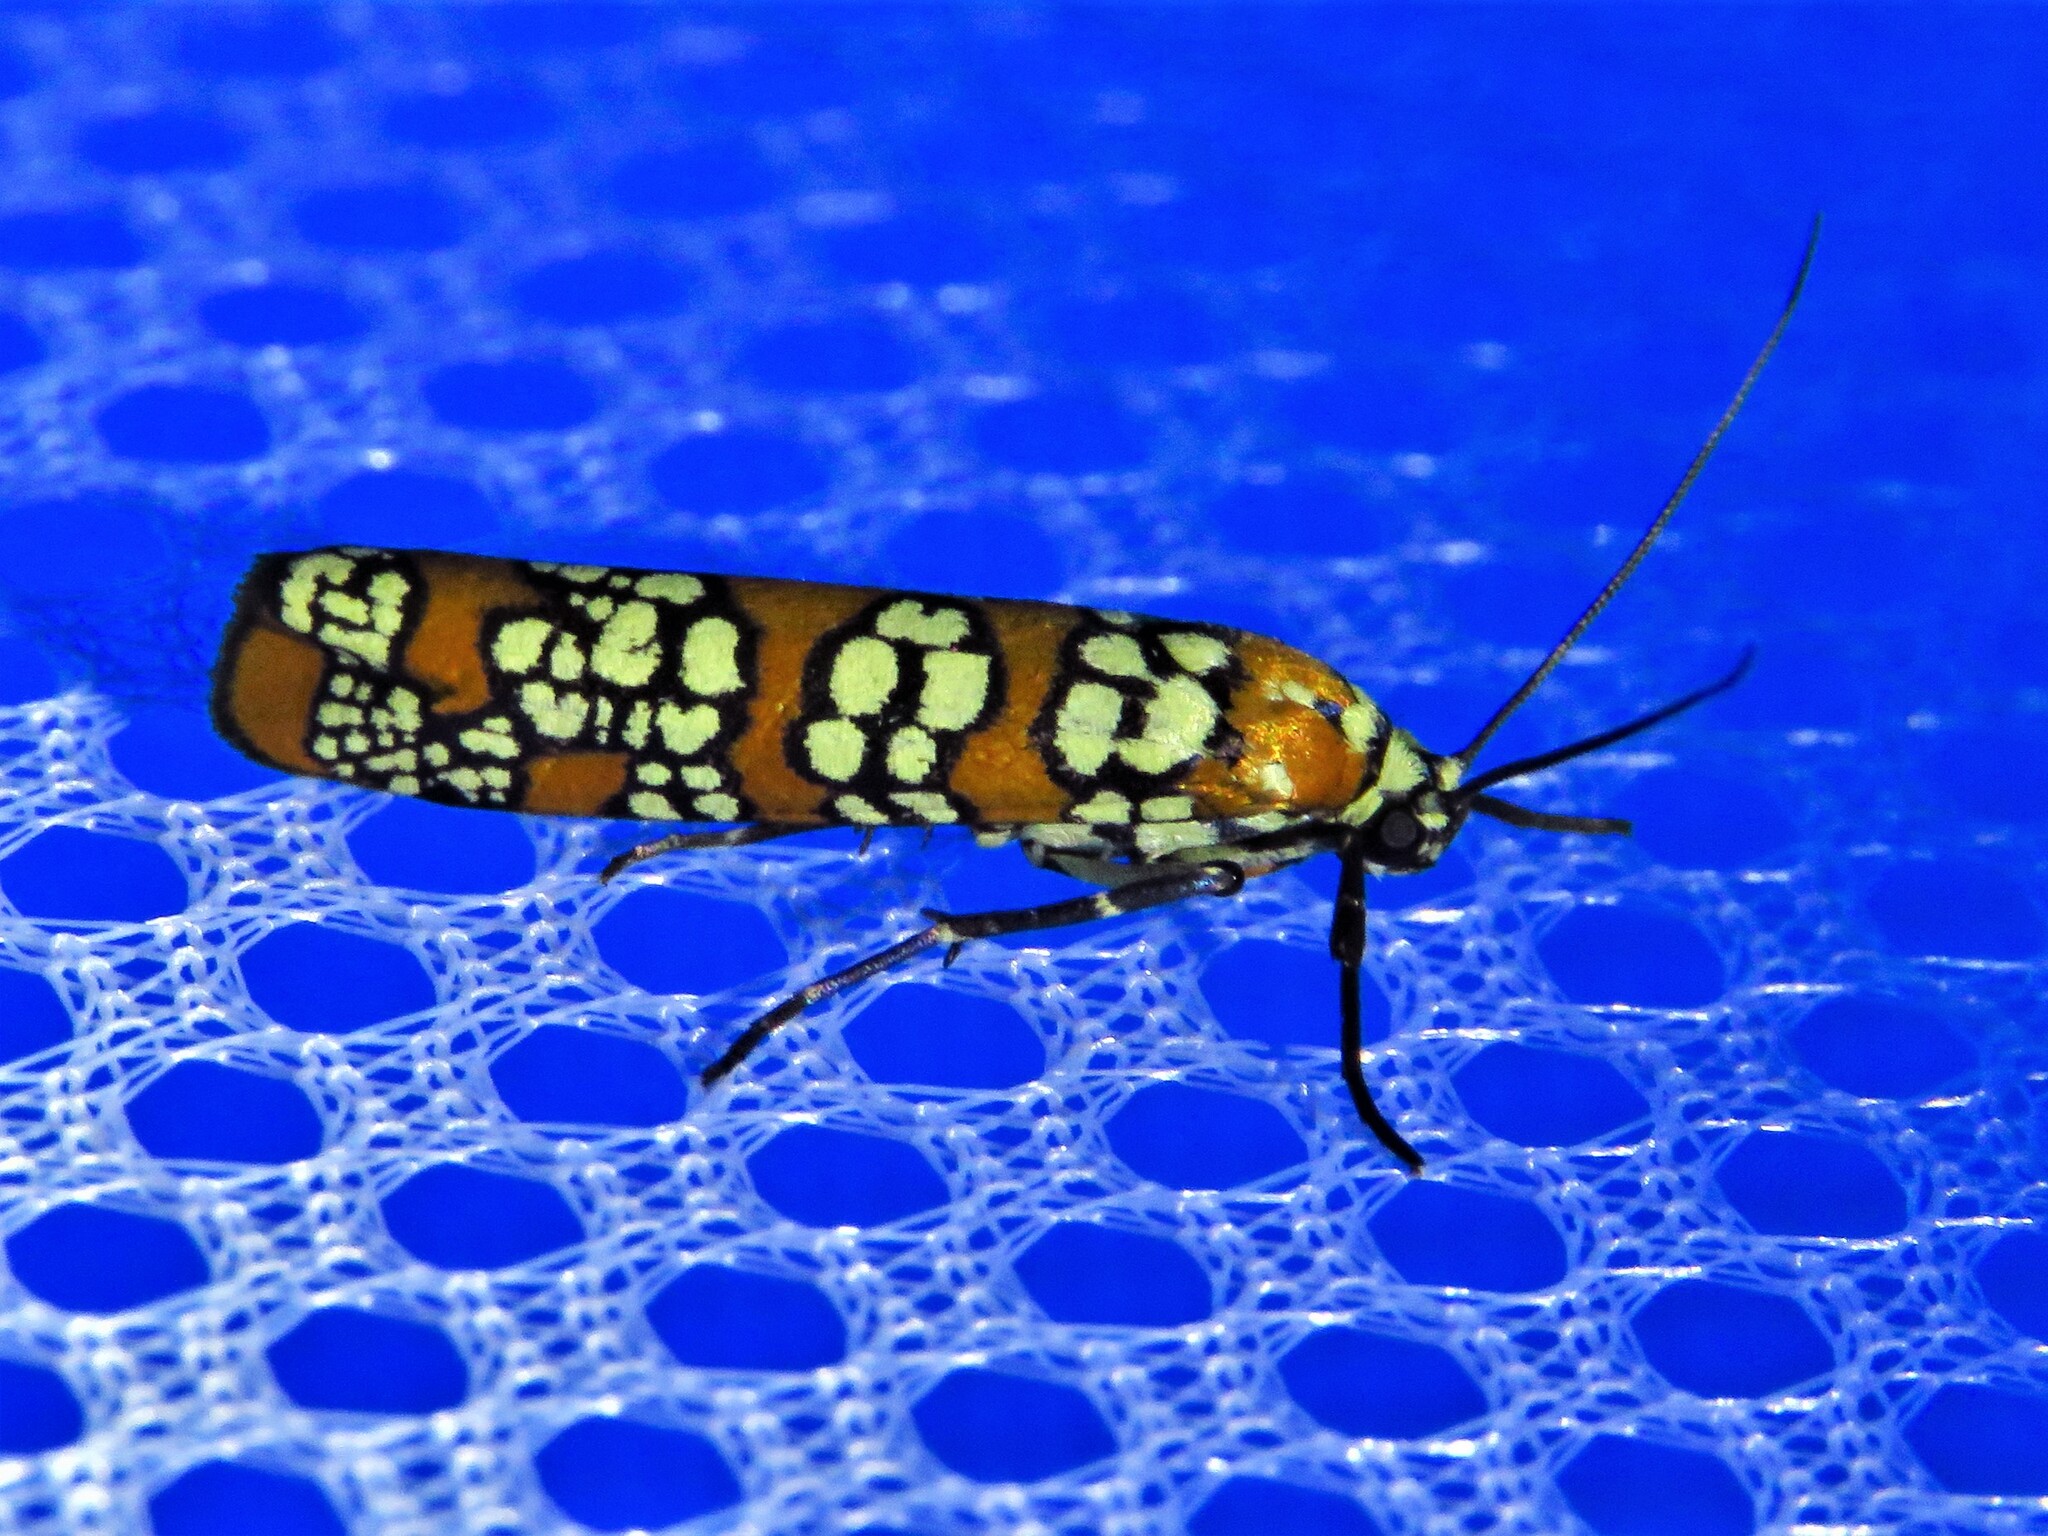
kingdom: Animalia
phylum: Arthropoda
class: Insecta
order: Lepidoptera
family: Attevidae
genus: Atteva
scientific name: Atteva punctella
